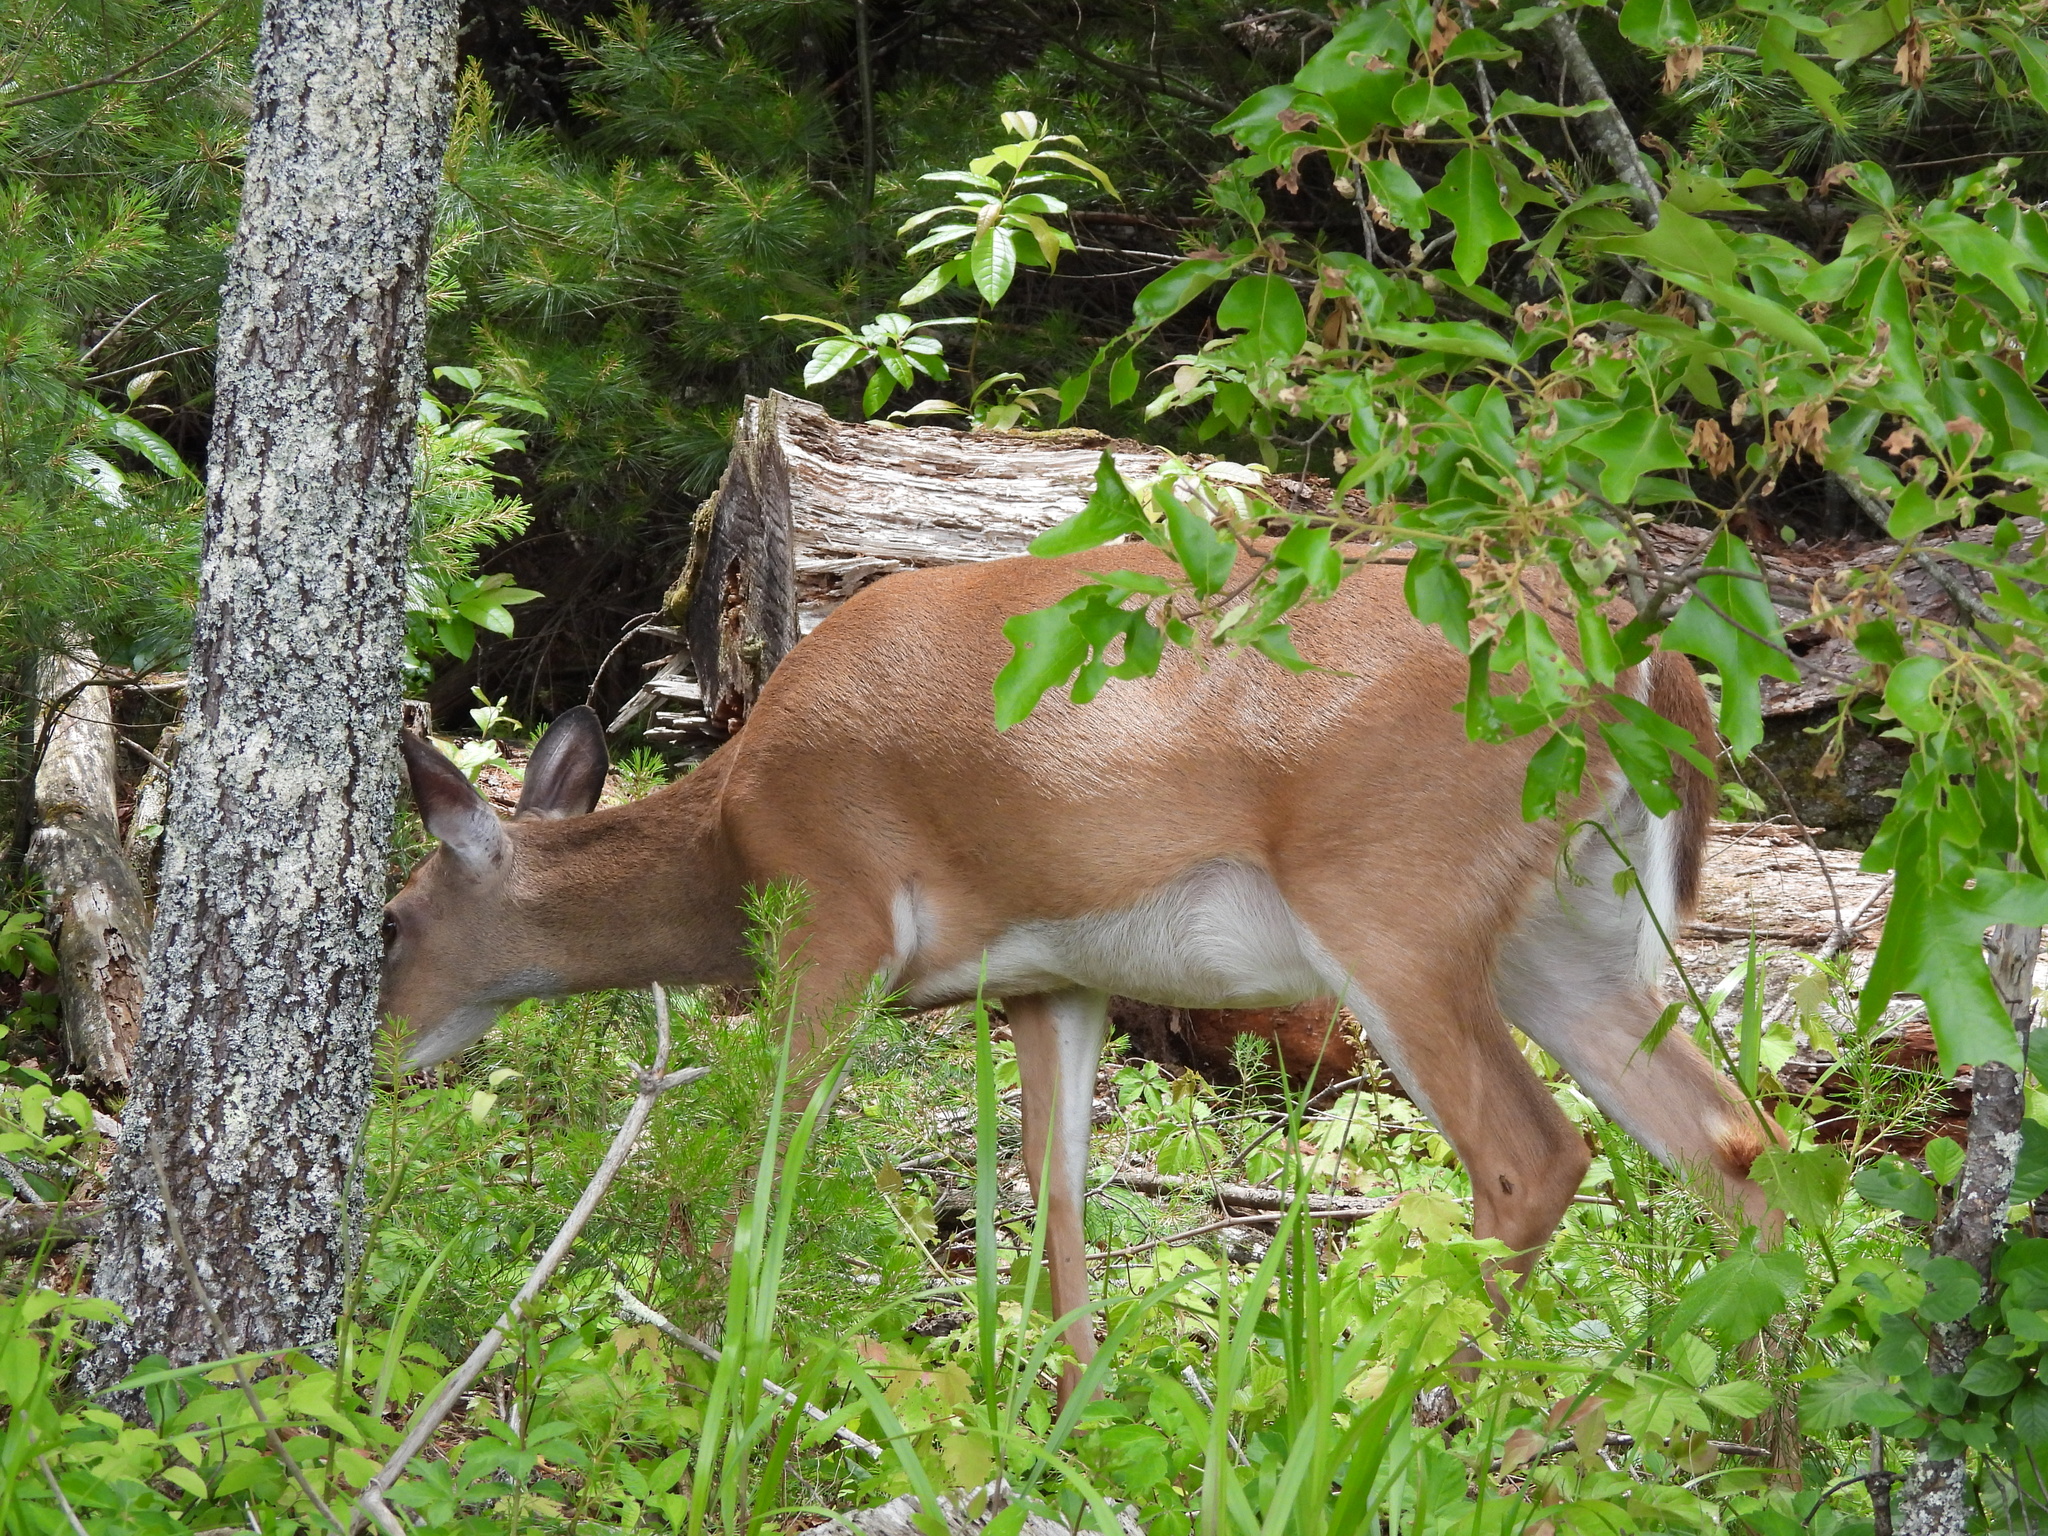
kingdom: Animalia
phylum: Chordata
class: Mammalia
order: Artiodactyla
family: Cervidae
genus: Odocoileus
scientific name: Odocoileus virginianus
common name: White-tailed deer
